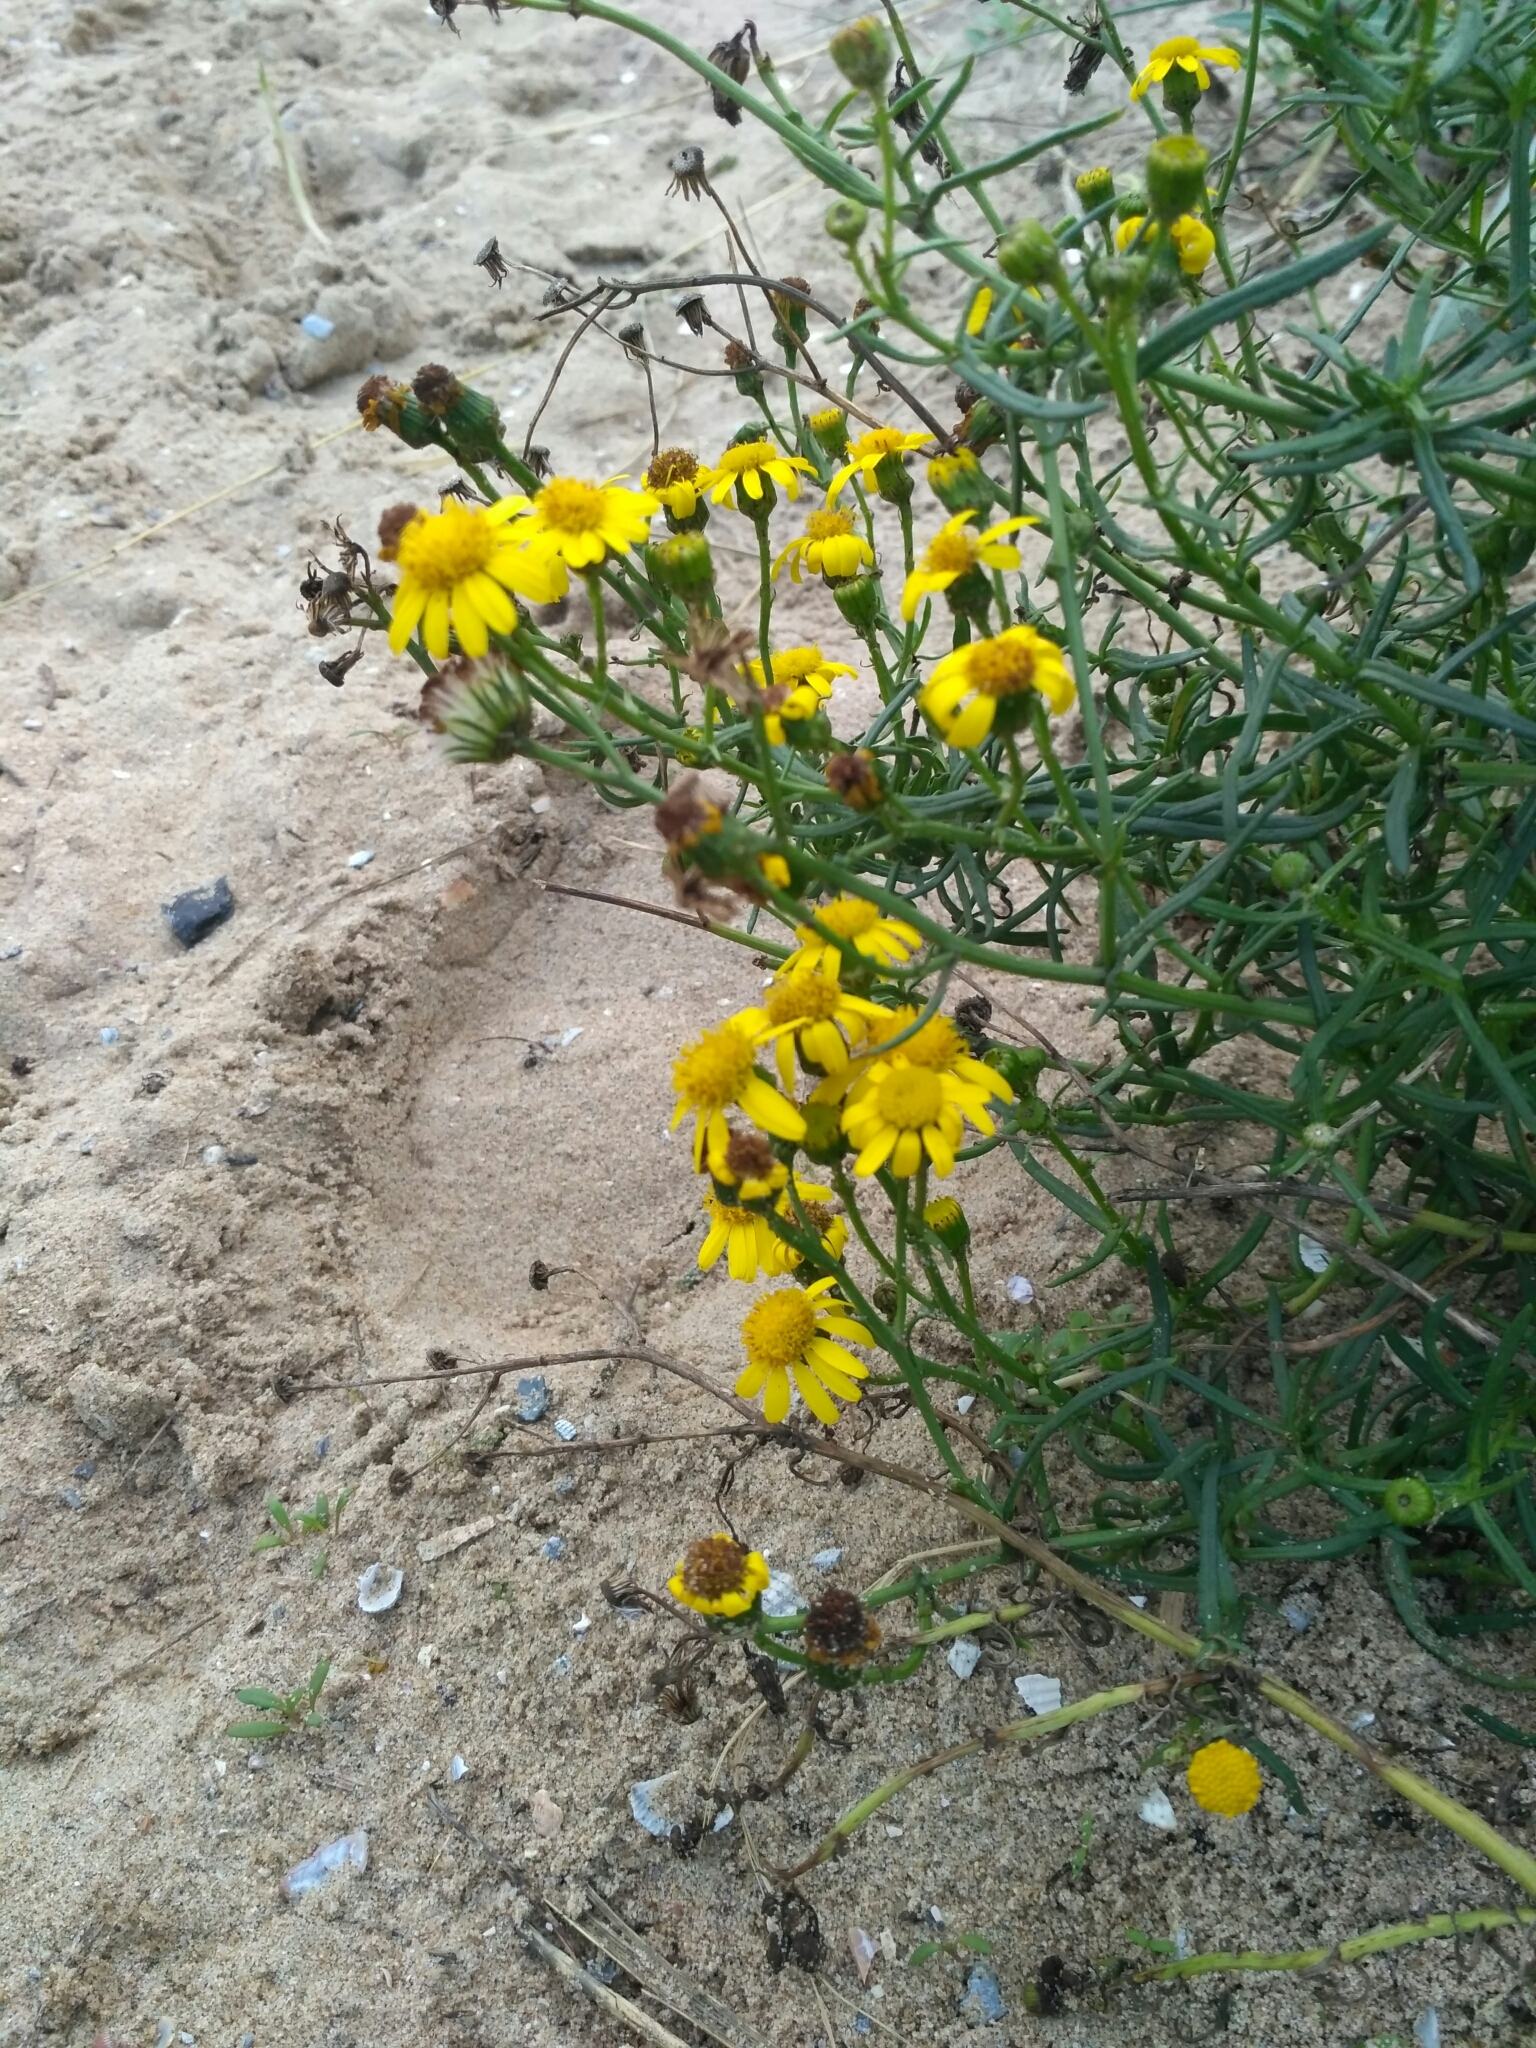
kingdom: Plantae
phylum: Tracheophyta
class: Magnoliopsida
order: Asterales
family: Asteraceae
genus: Senecio
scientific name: Senecio inaequidens
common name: Narrow-leaved ragwort
